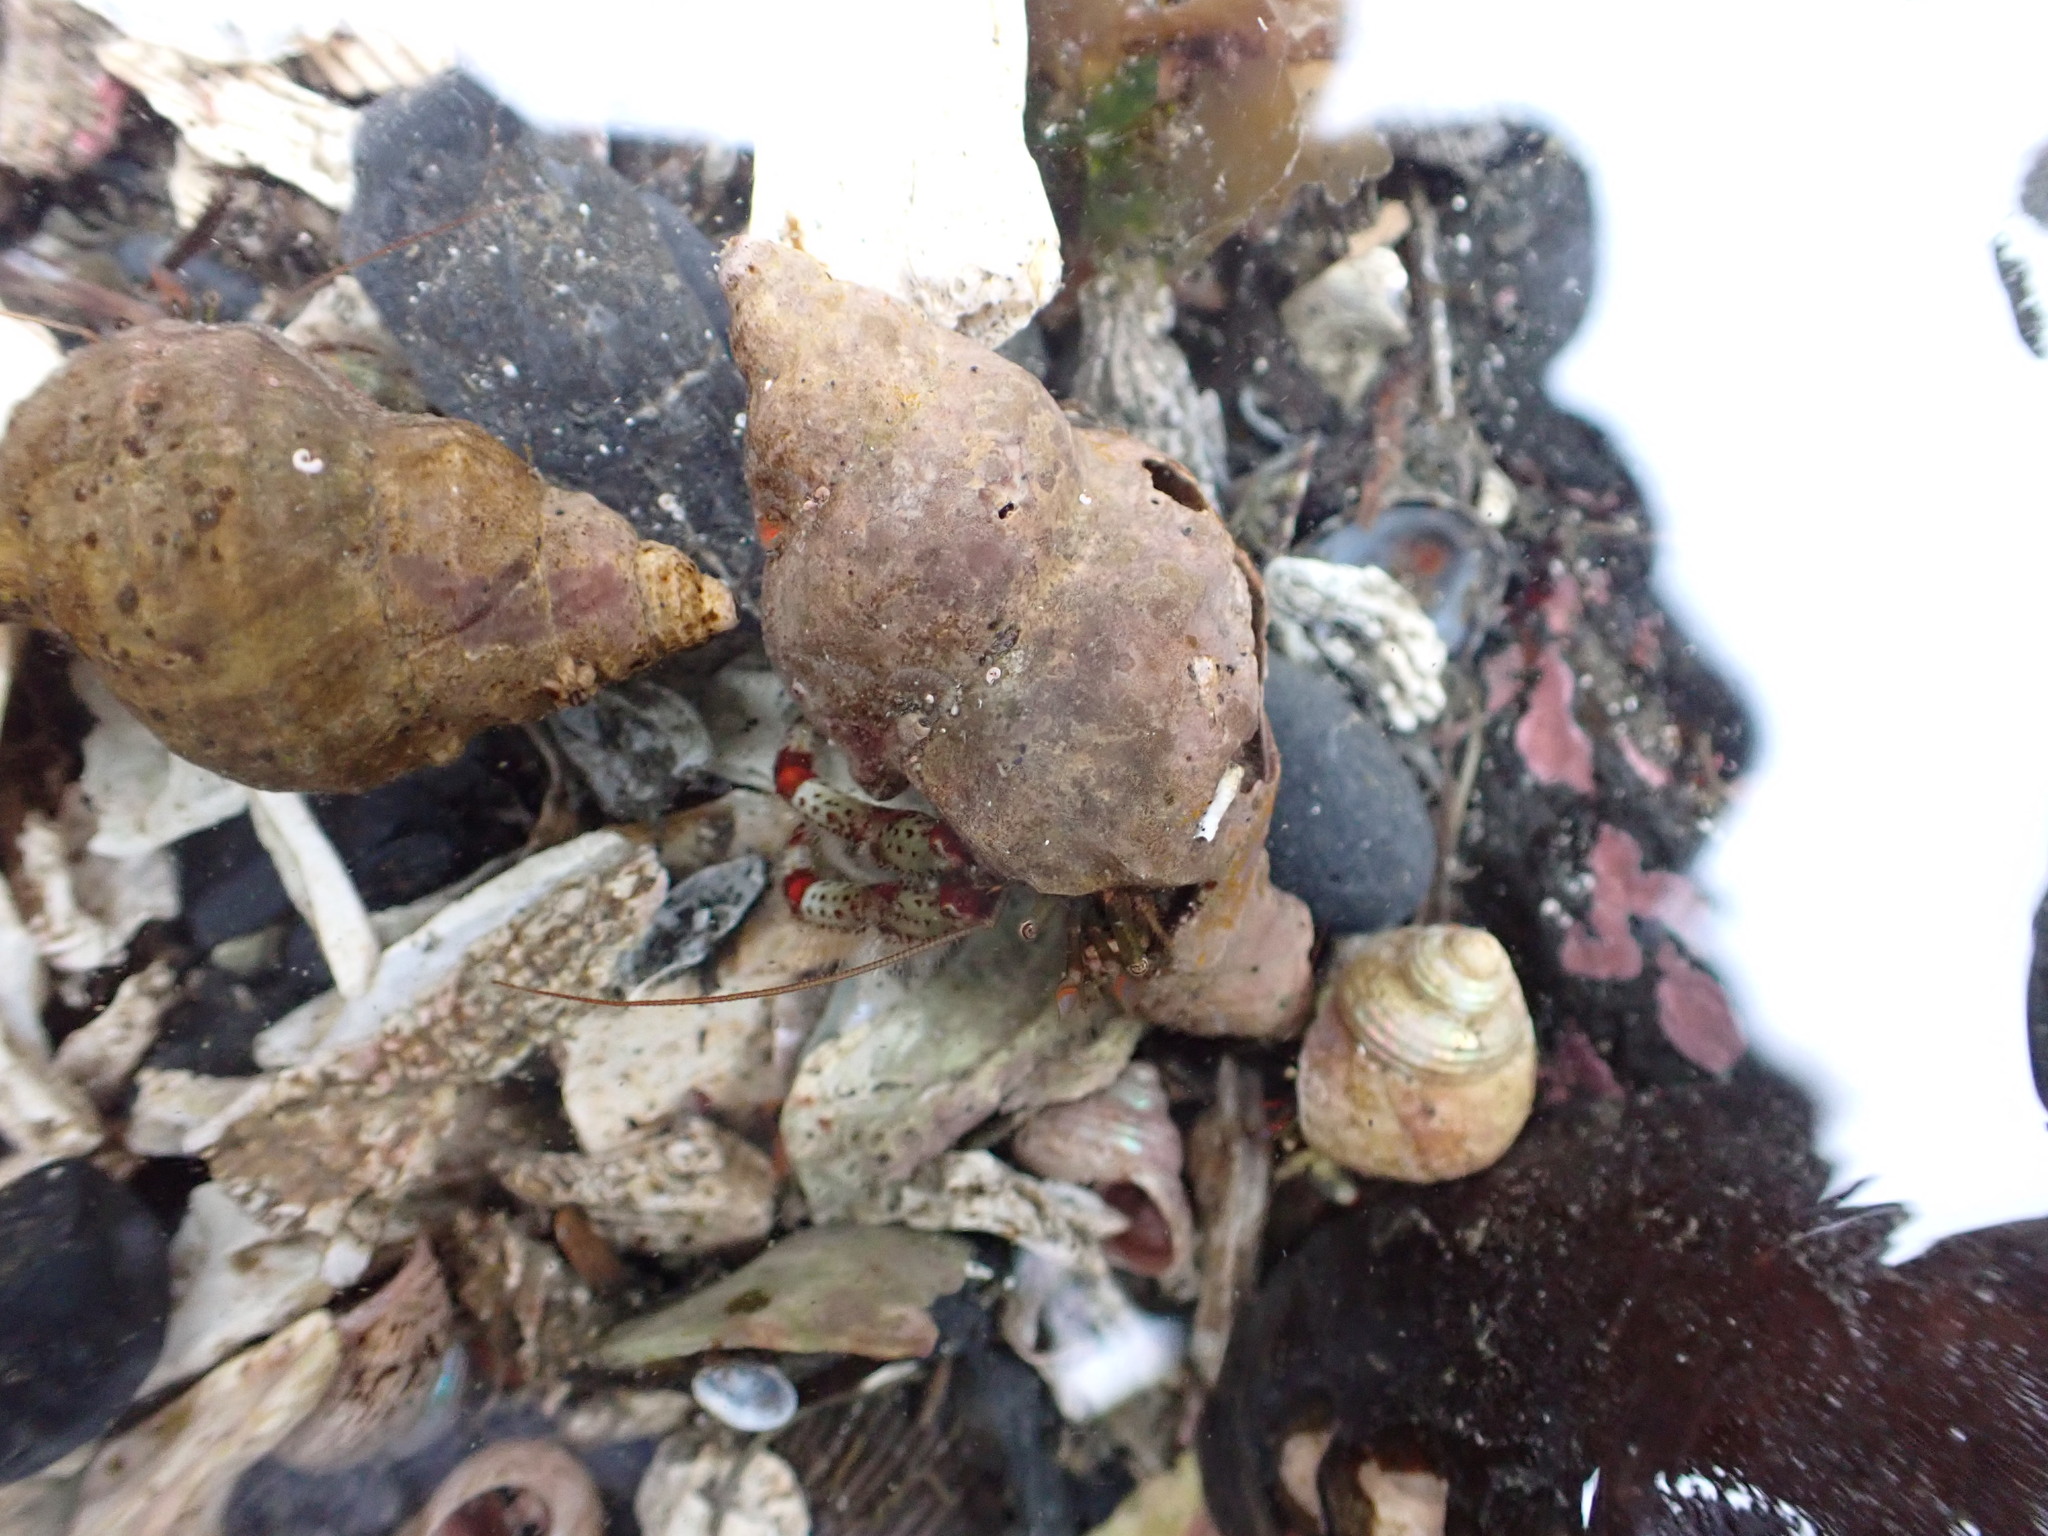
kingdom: Animalia
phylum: Arthropoda
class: Malacostraca
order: Decapoda
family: Paguridae
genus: Pagurus
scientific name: Pagurus beringanus
